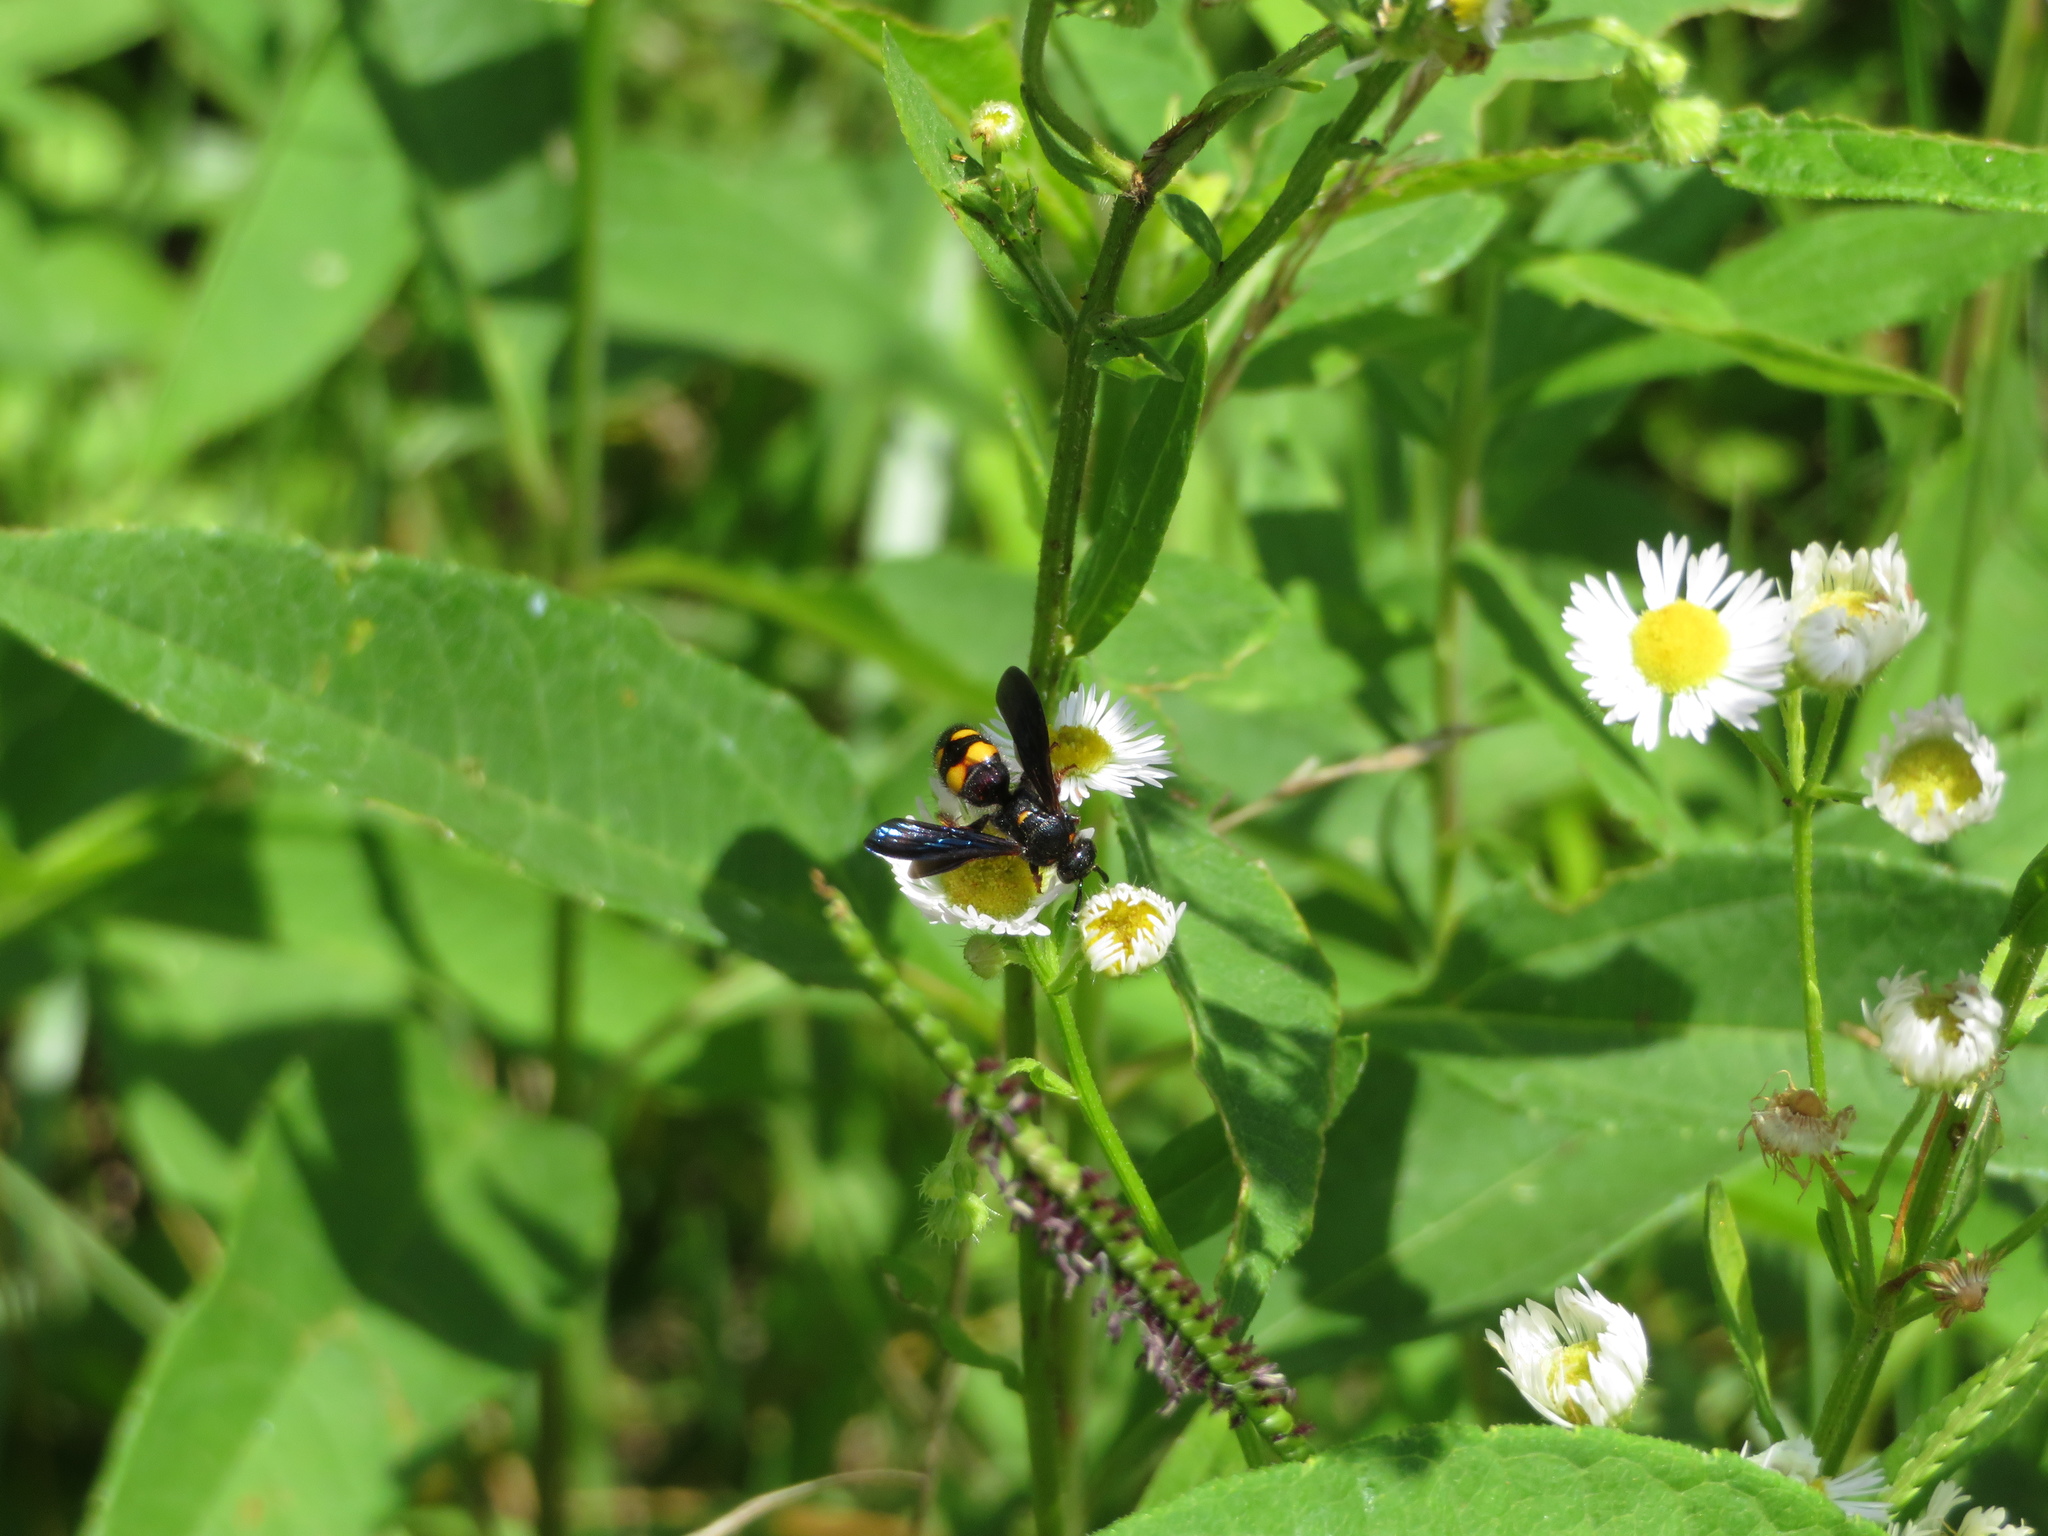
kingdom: Animalia
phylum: Arthropoda
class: Insecta
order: Hymenoptera
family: Scoliidae
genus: Scolia
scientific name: Scolia nobilitata
